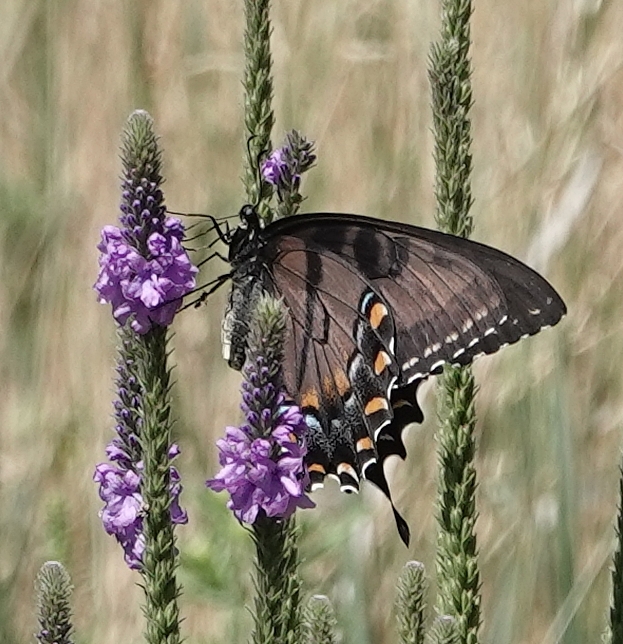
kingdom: Animalia
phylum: Arthropoda
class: Insecta
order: Lepidoptera
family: Papilionidae
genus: Papilio
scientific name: Papilio glaucus
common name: Tiger swallowtail
